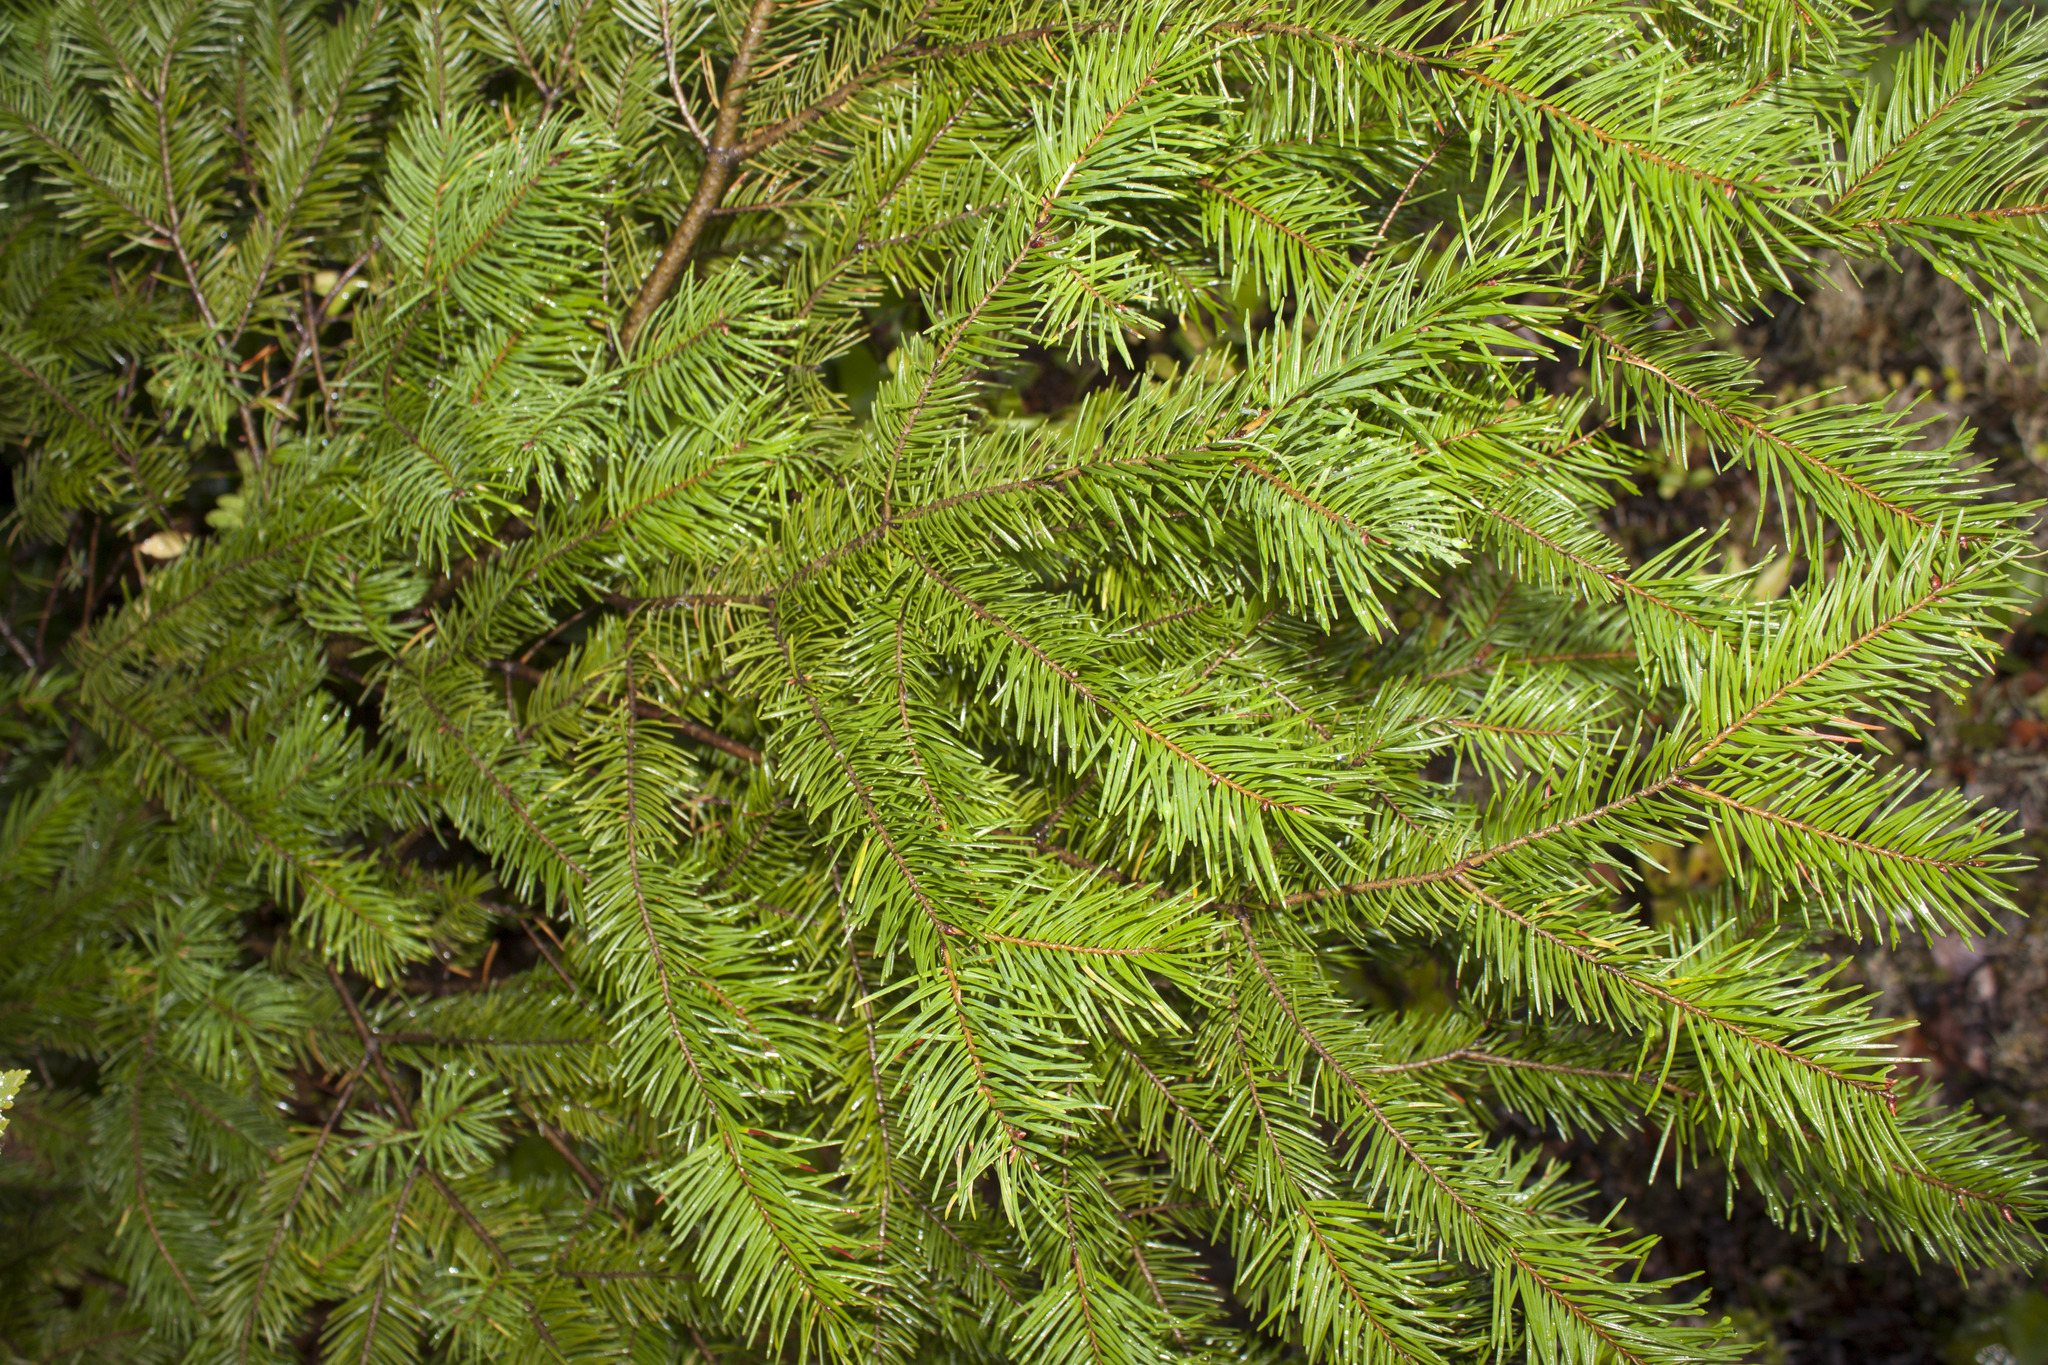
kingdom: Plantae
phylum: Tracheophyta
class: Pinopsida
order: Pinales
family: Pinaceae
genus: Pseudotsuga
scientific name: Pseudotsuga menziesii
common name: Douglas fir
